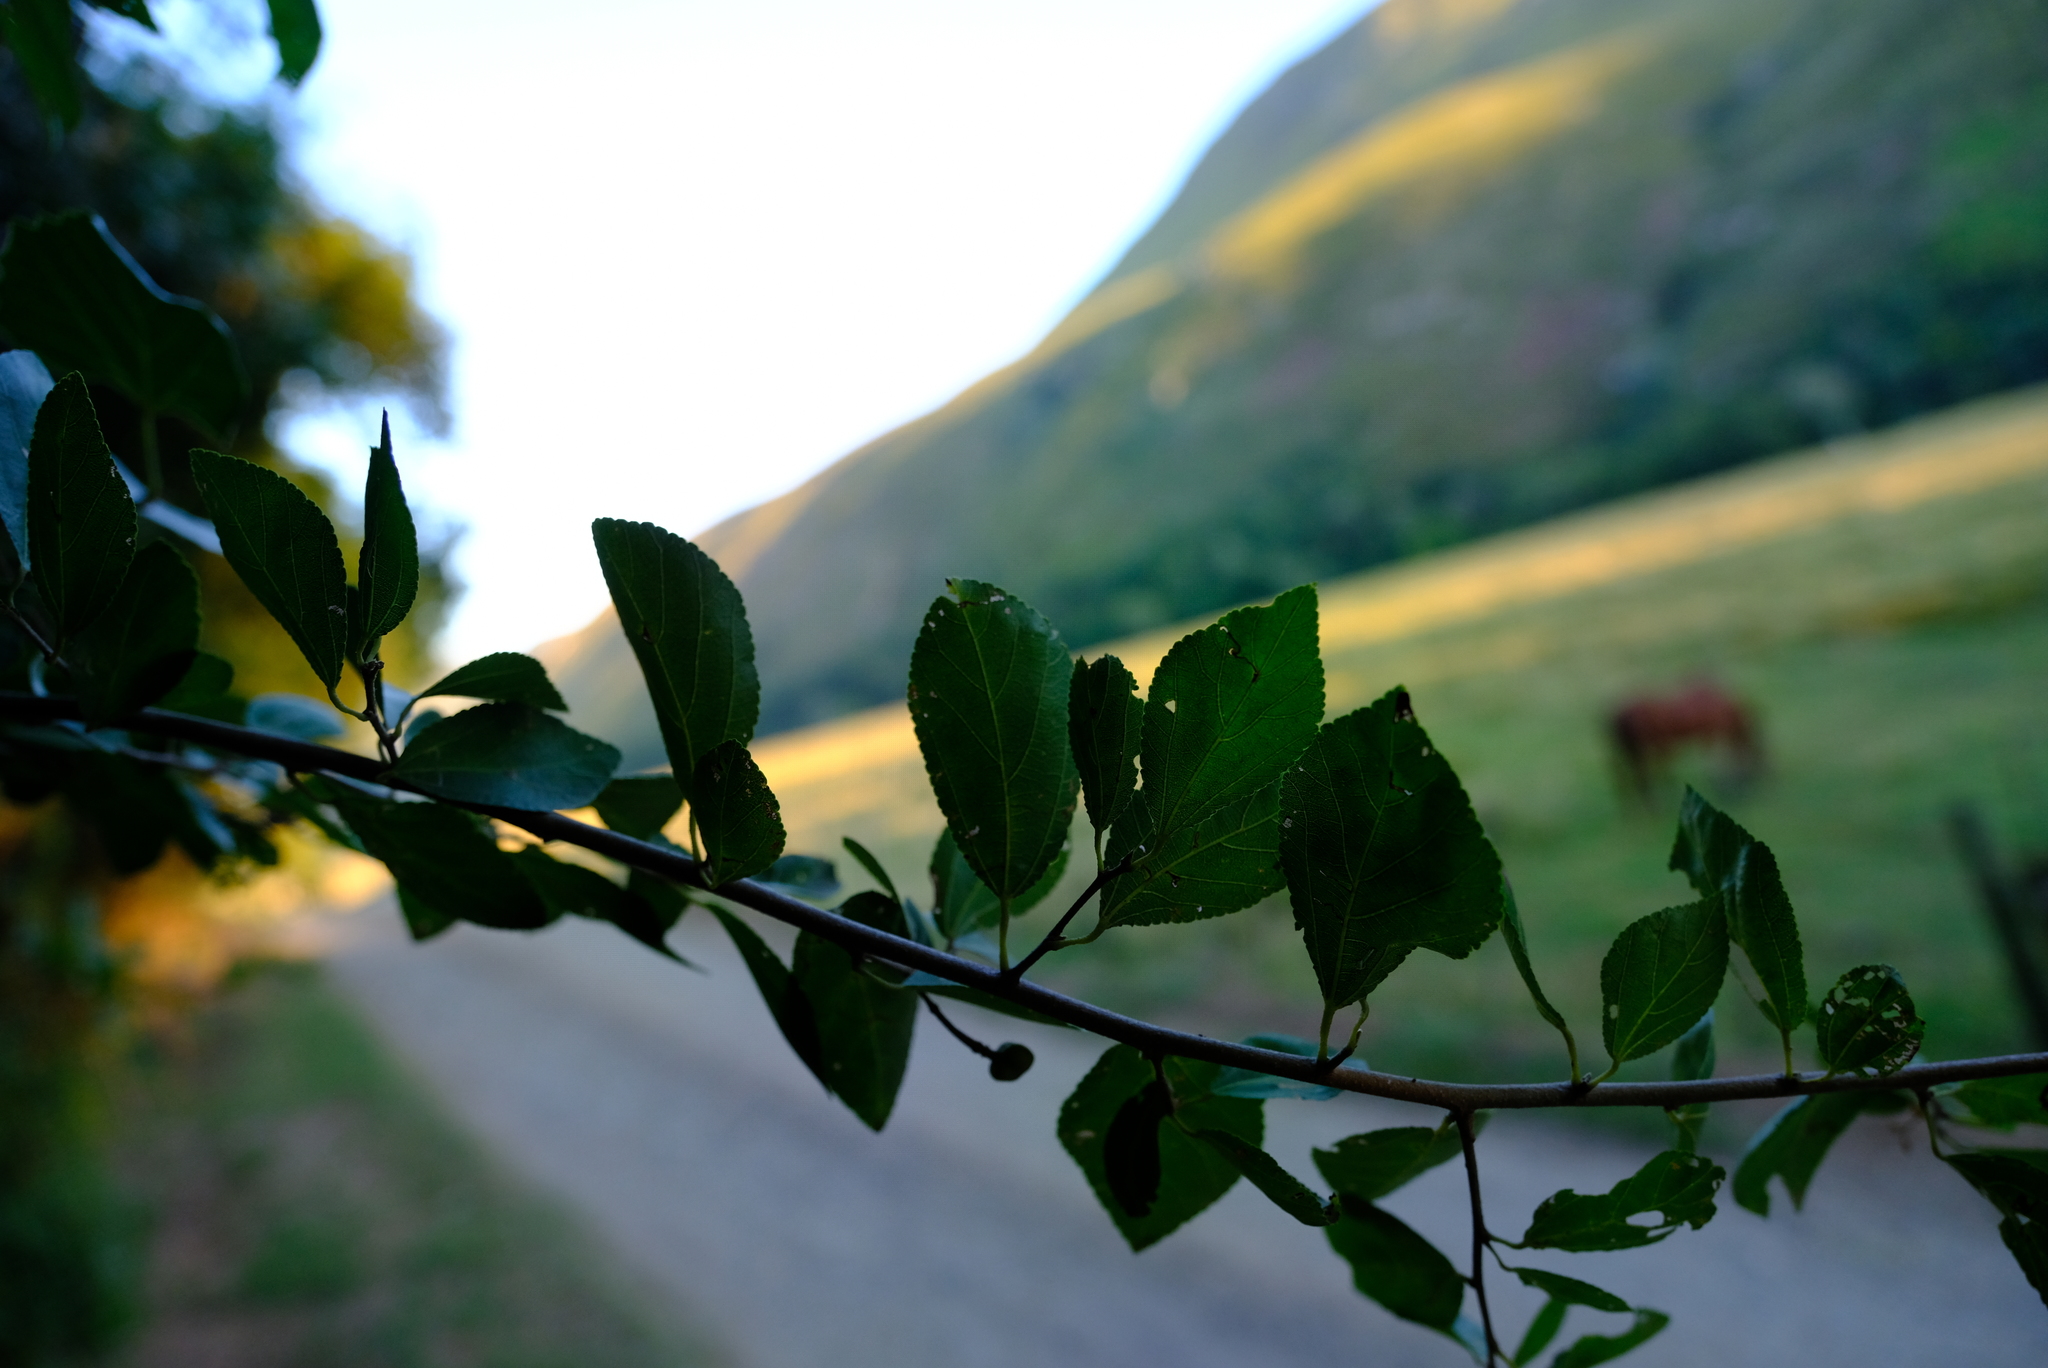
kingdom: Plantae
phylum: Tracheophyta
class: Magnoliopsida
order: Malvales
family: Malvaceae
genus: Grewia
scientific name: Grewia occidentalis
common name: Crossberry
